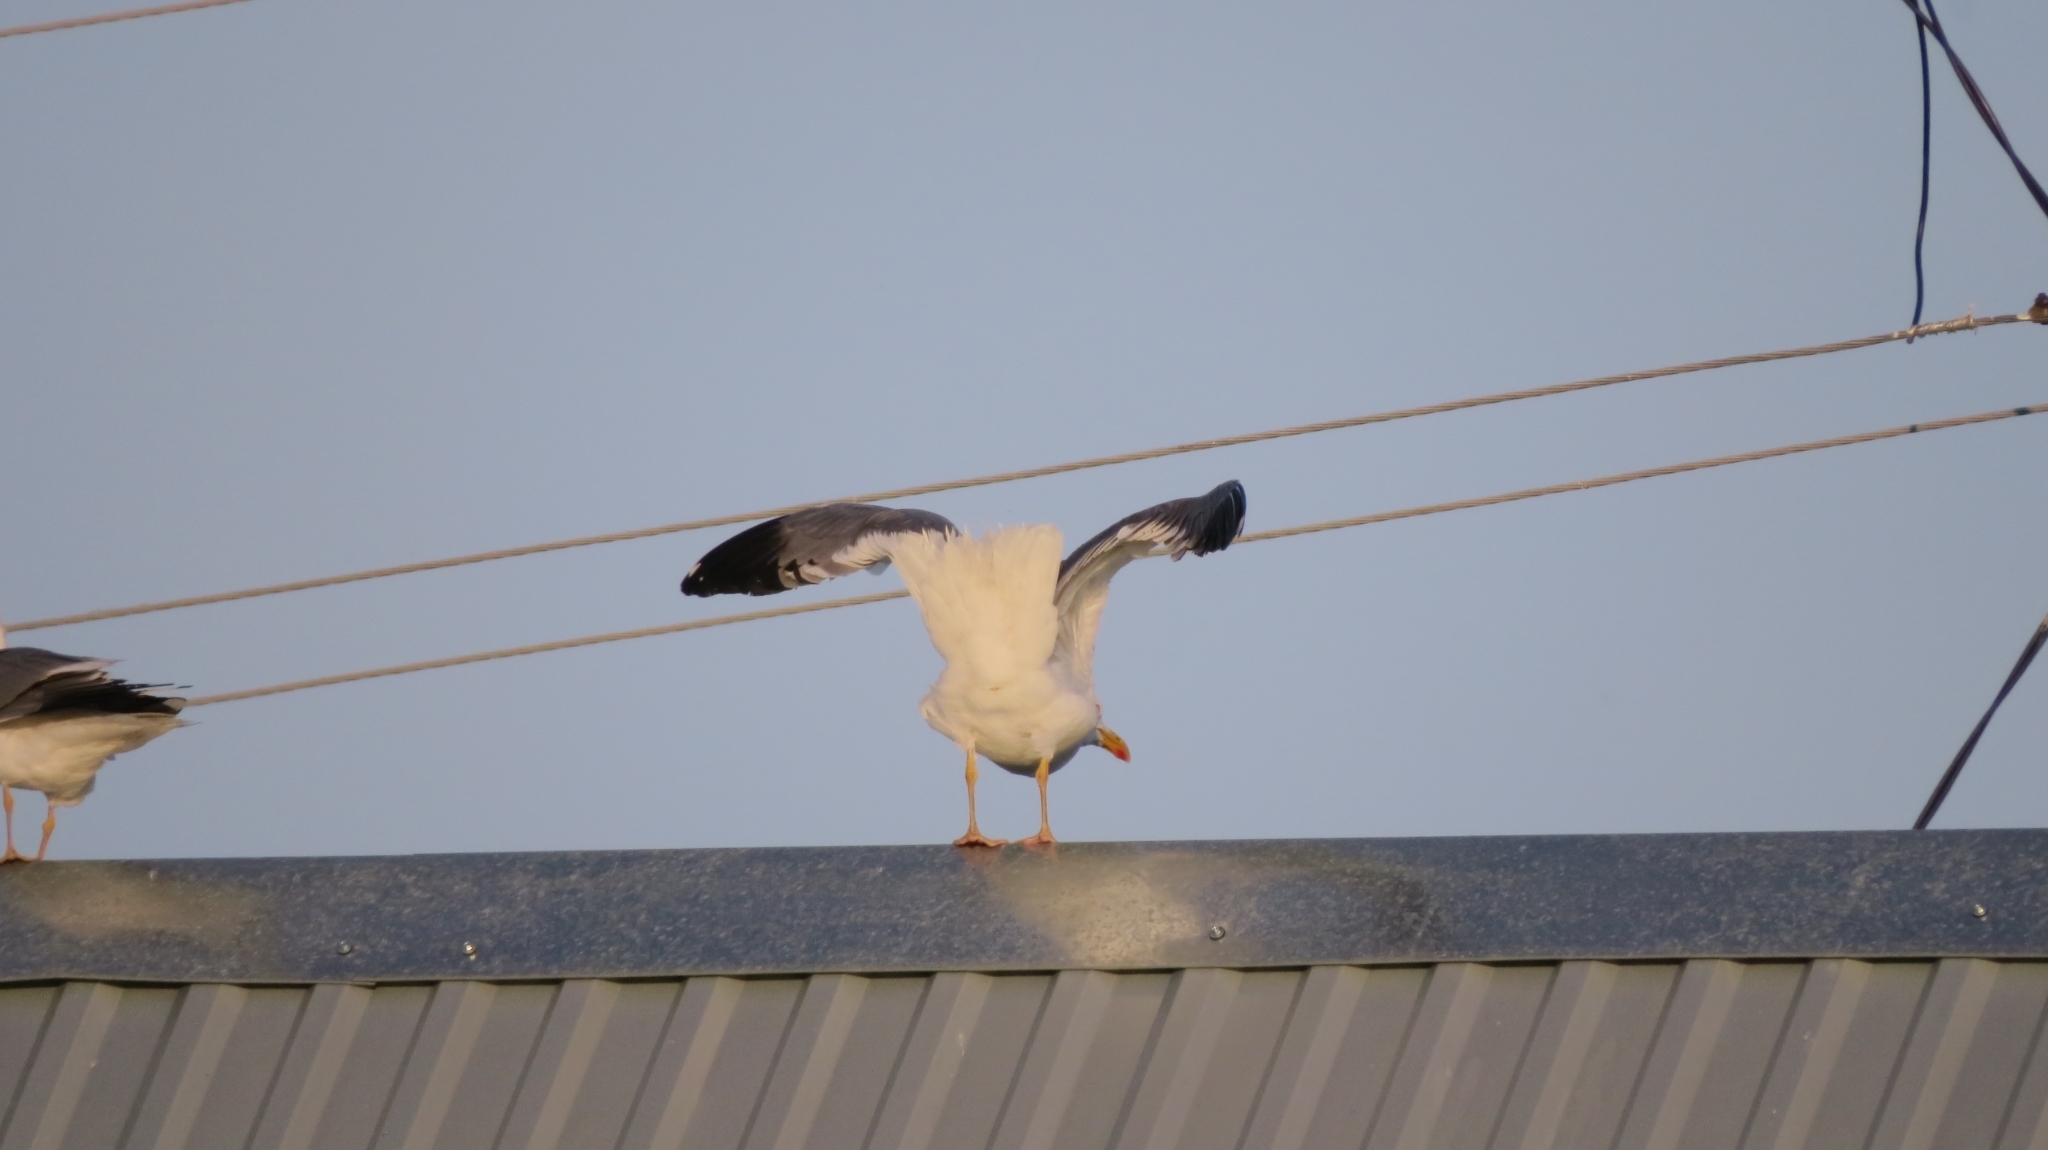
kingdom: Animalia
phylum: Chordata
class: Aves
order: Charadriiformes
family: Laridae
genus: Larus
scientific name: Larus canus
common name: Mew gull
